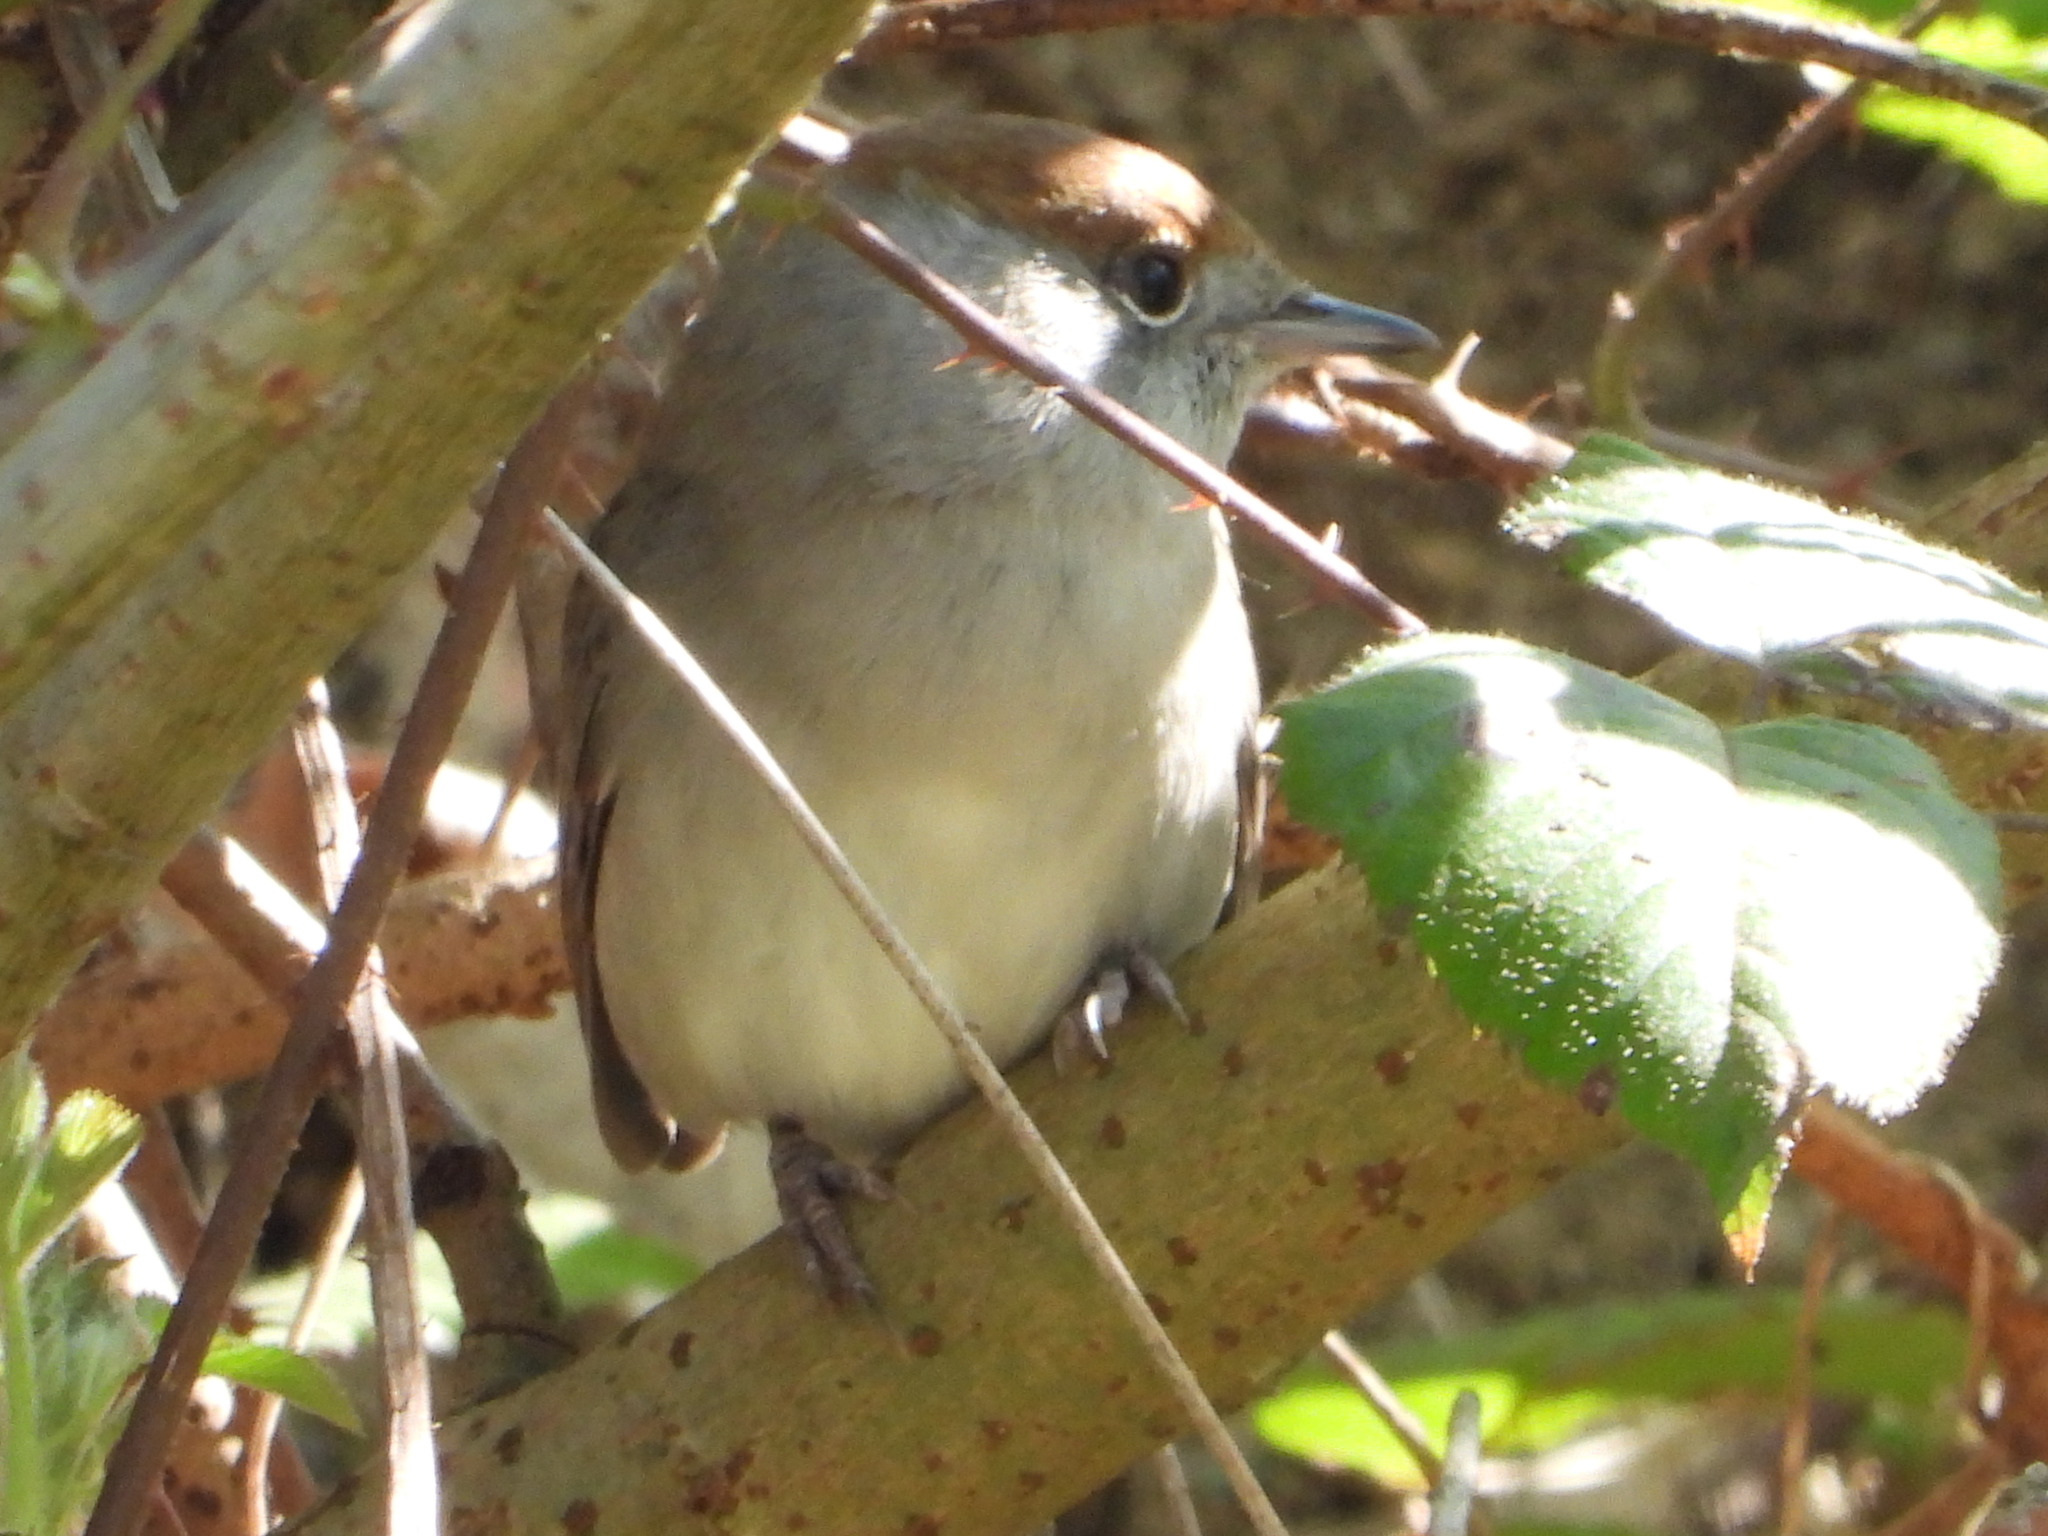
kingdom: Animalia
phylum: Chordata
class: Aves
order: Passeriformes
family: Sylviidae
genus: Sylvia
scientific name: Sylvia atricapilla
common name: Eurasian blackcap
